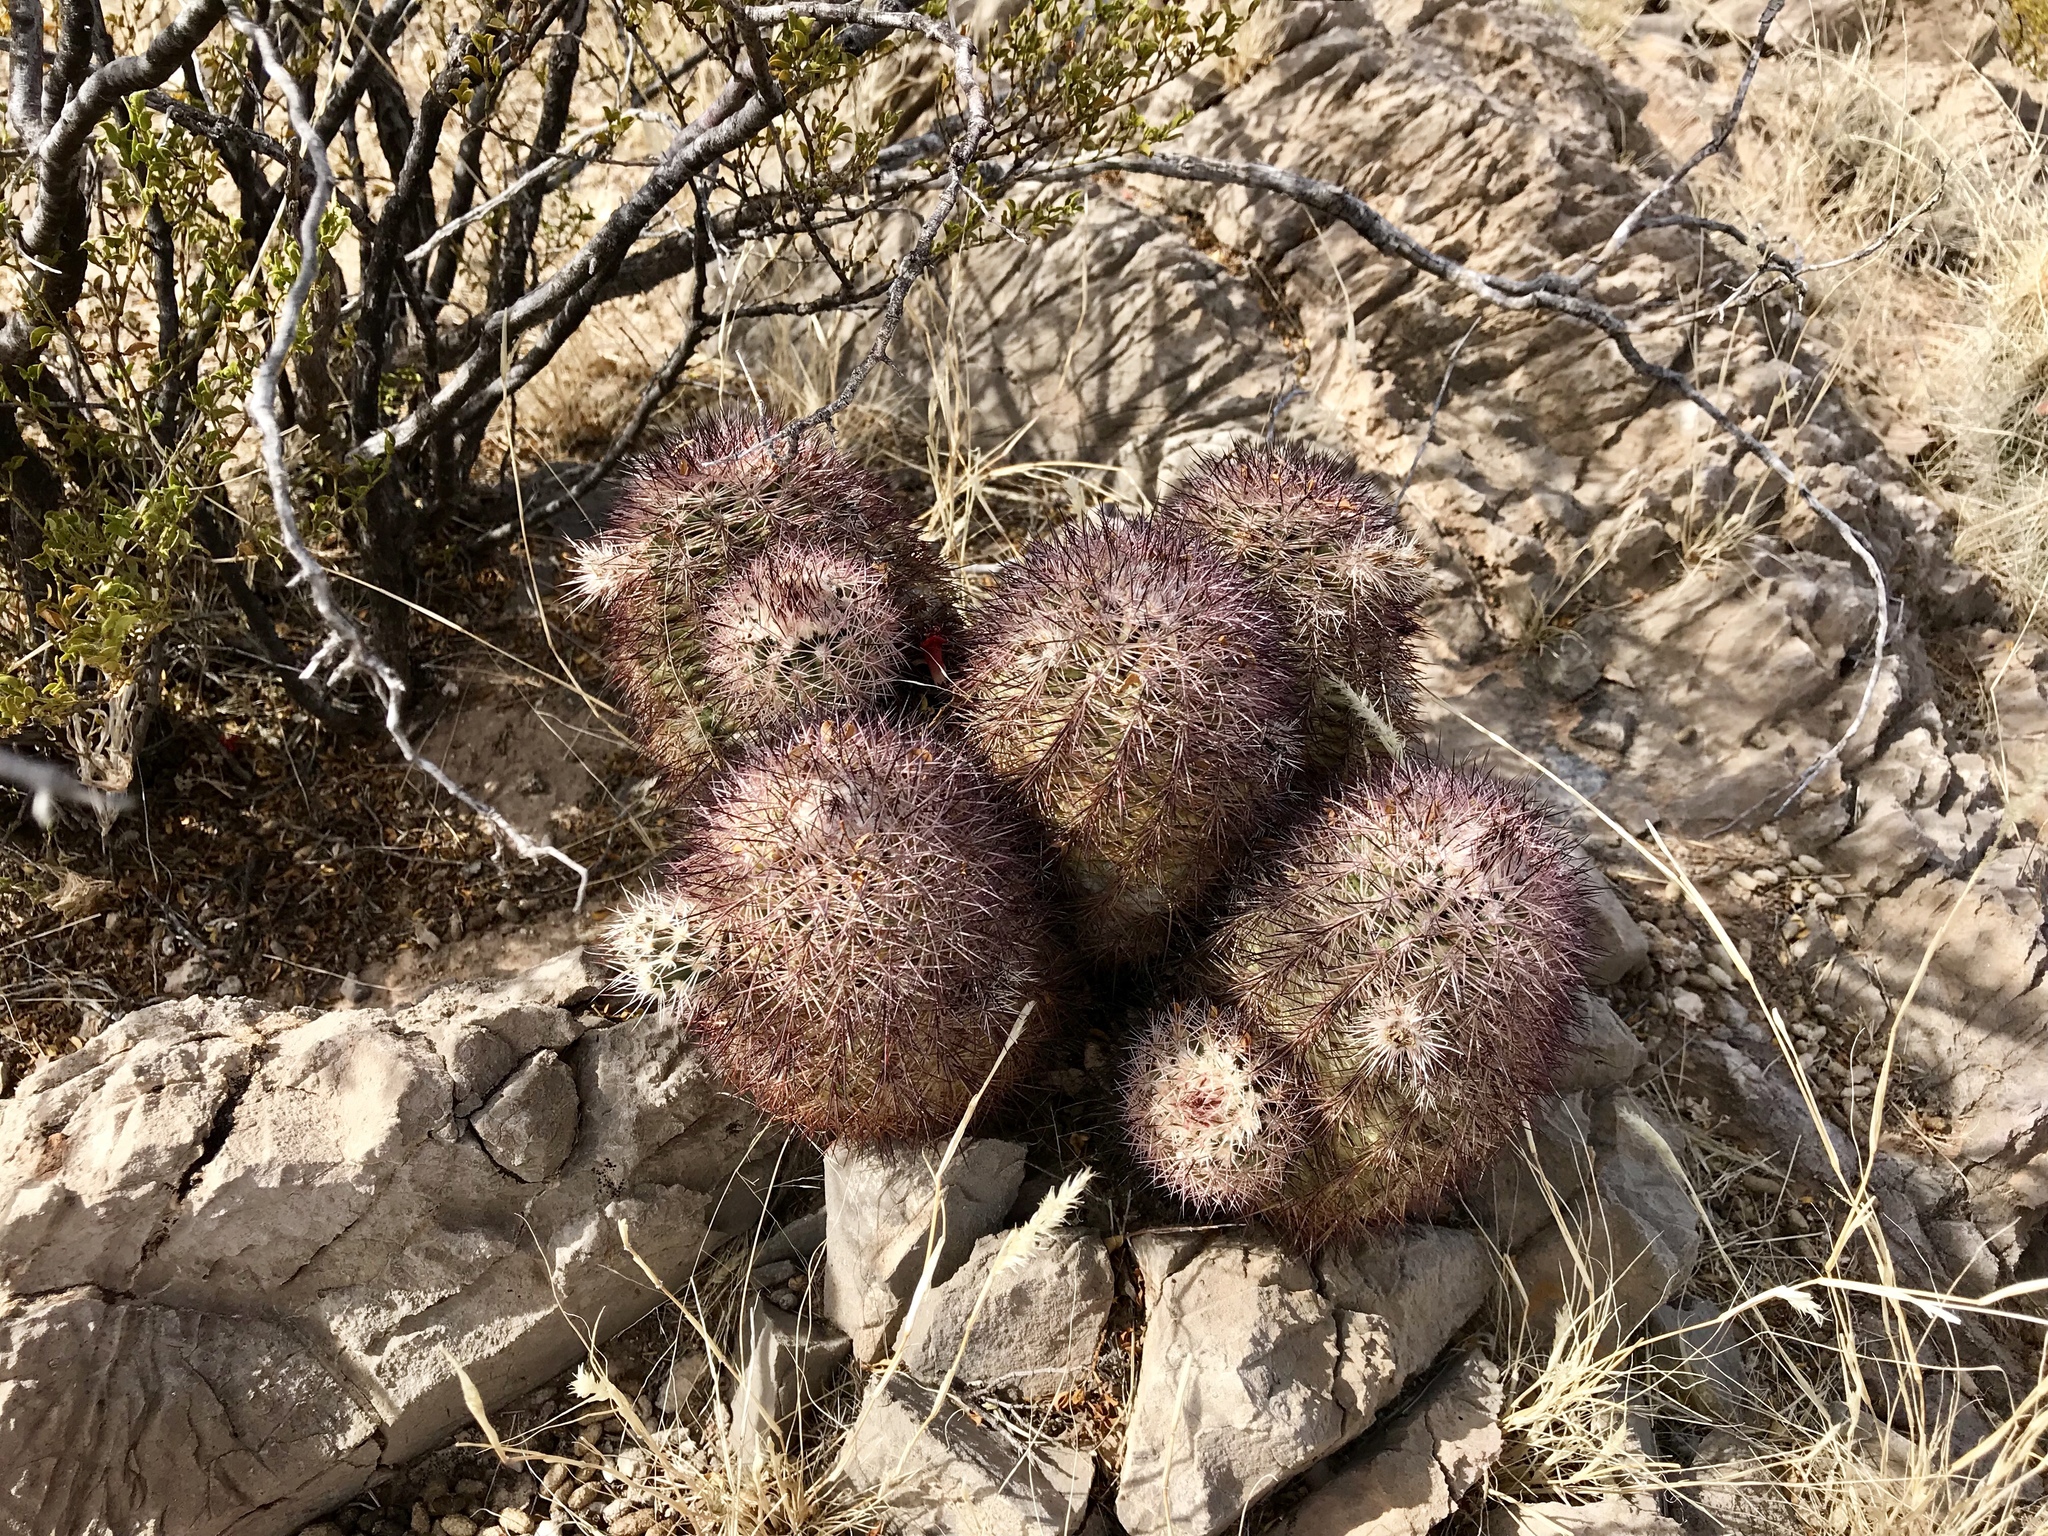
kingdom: Plantae
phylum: Tracheophyta
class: Magnoliopsida
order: Caryophyllales
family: Cactaceae
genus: Echinocereus
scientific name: Echinocereus roetteri
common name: Lloyd's hedgehog cactus
